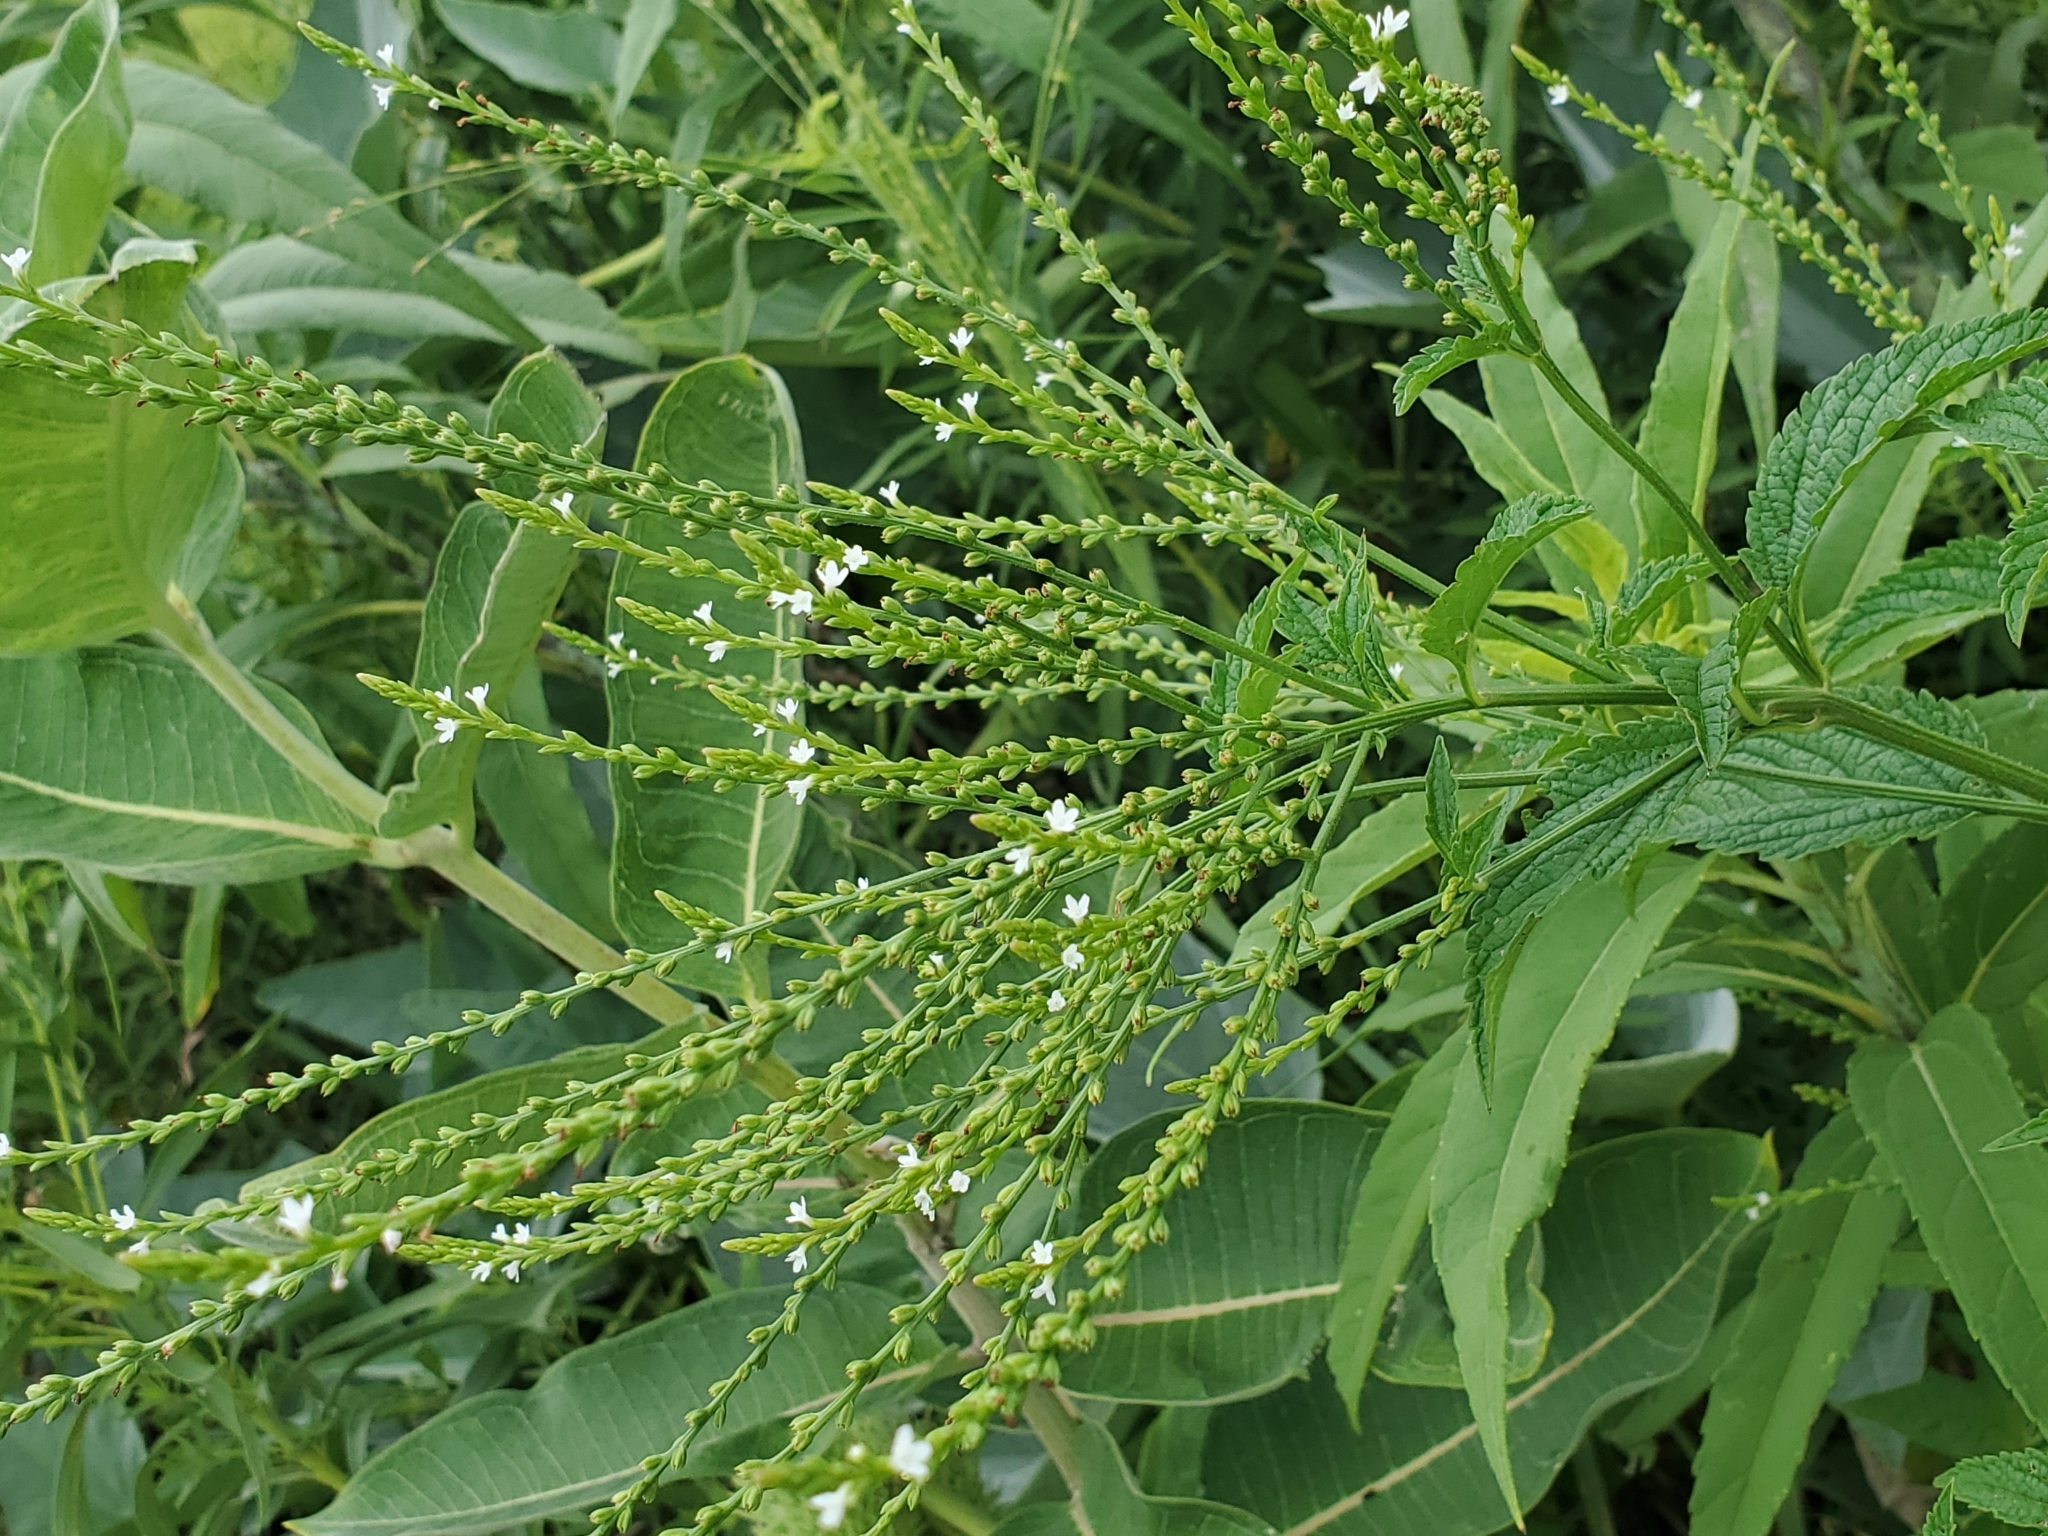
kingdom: Plantae
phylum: Tracheophyta
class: Magnoliopsida
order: Lamiales
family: Verbenaceae
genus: Verbena
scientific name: Verbena urticifolia
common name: Nettle-leaved vervain
